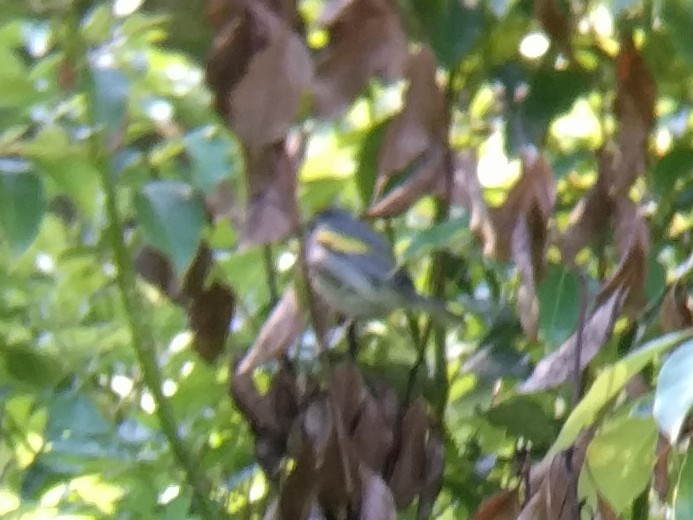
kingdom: Animalia
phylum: Chordata
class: Aves
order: Passeriformes
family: Parulidae
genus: Vermivora
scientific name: Vermivora chrysoptera
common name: Golden-winged warbler
